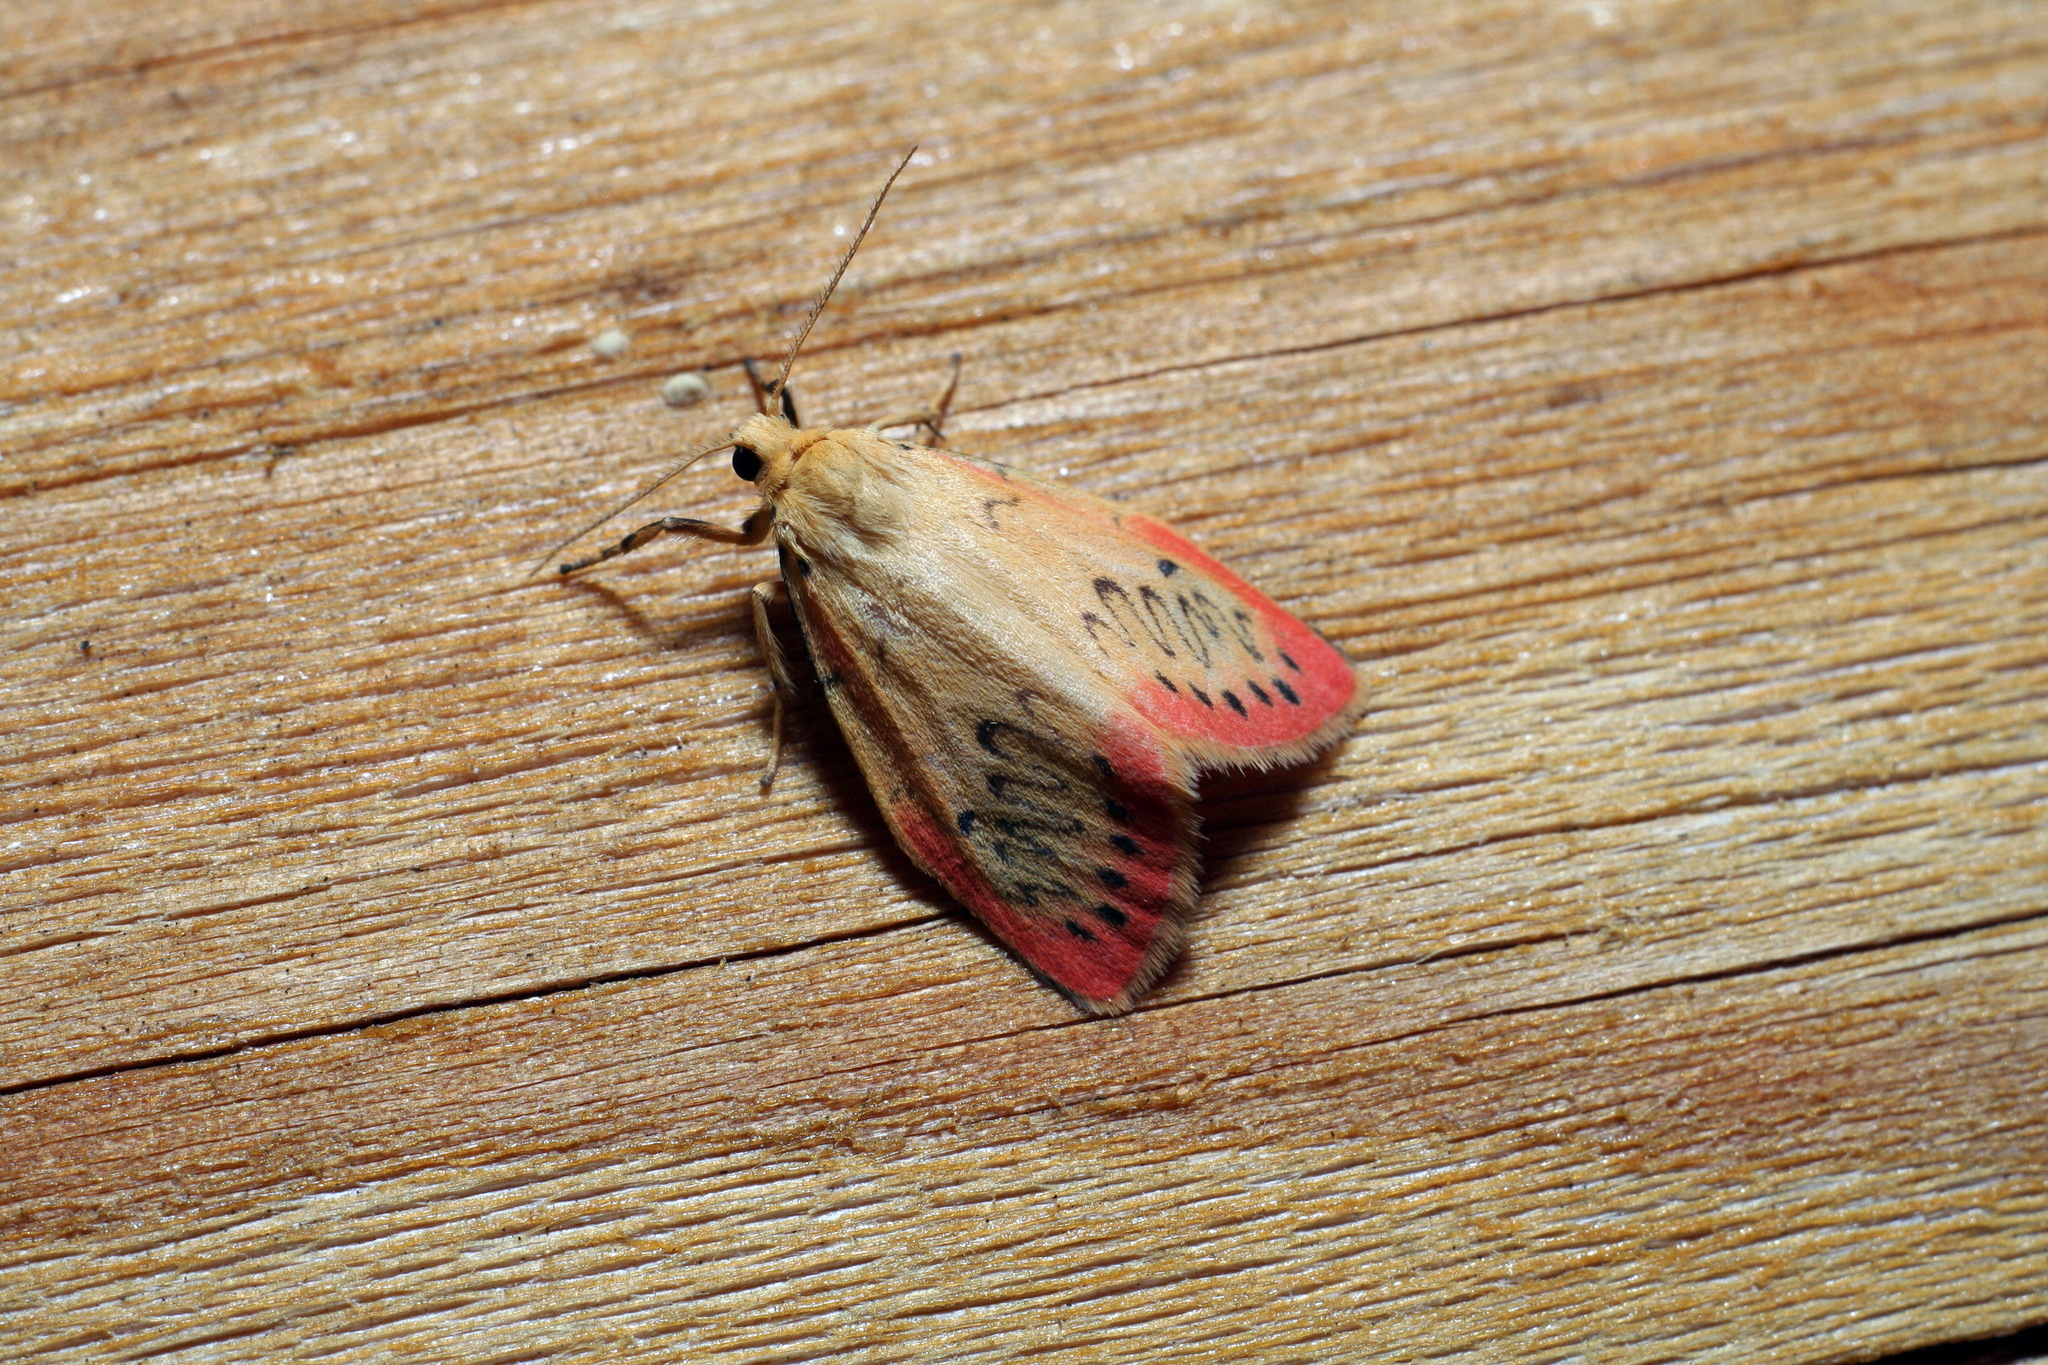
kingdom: Animalia
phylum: Arthropoda
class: Insecta
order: Lepidoptera
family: Erebidae
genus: Miltochrista
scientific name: Miltochrista miniata
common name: Rosy footman
